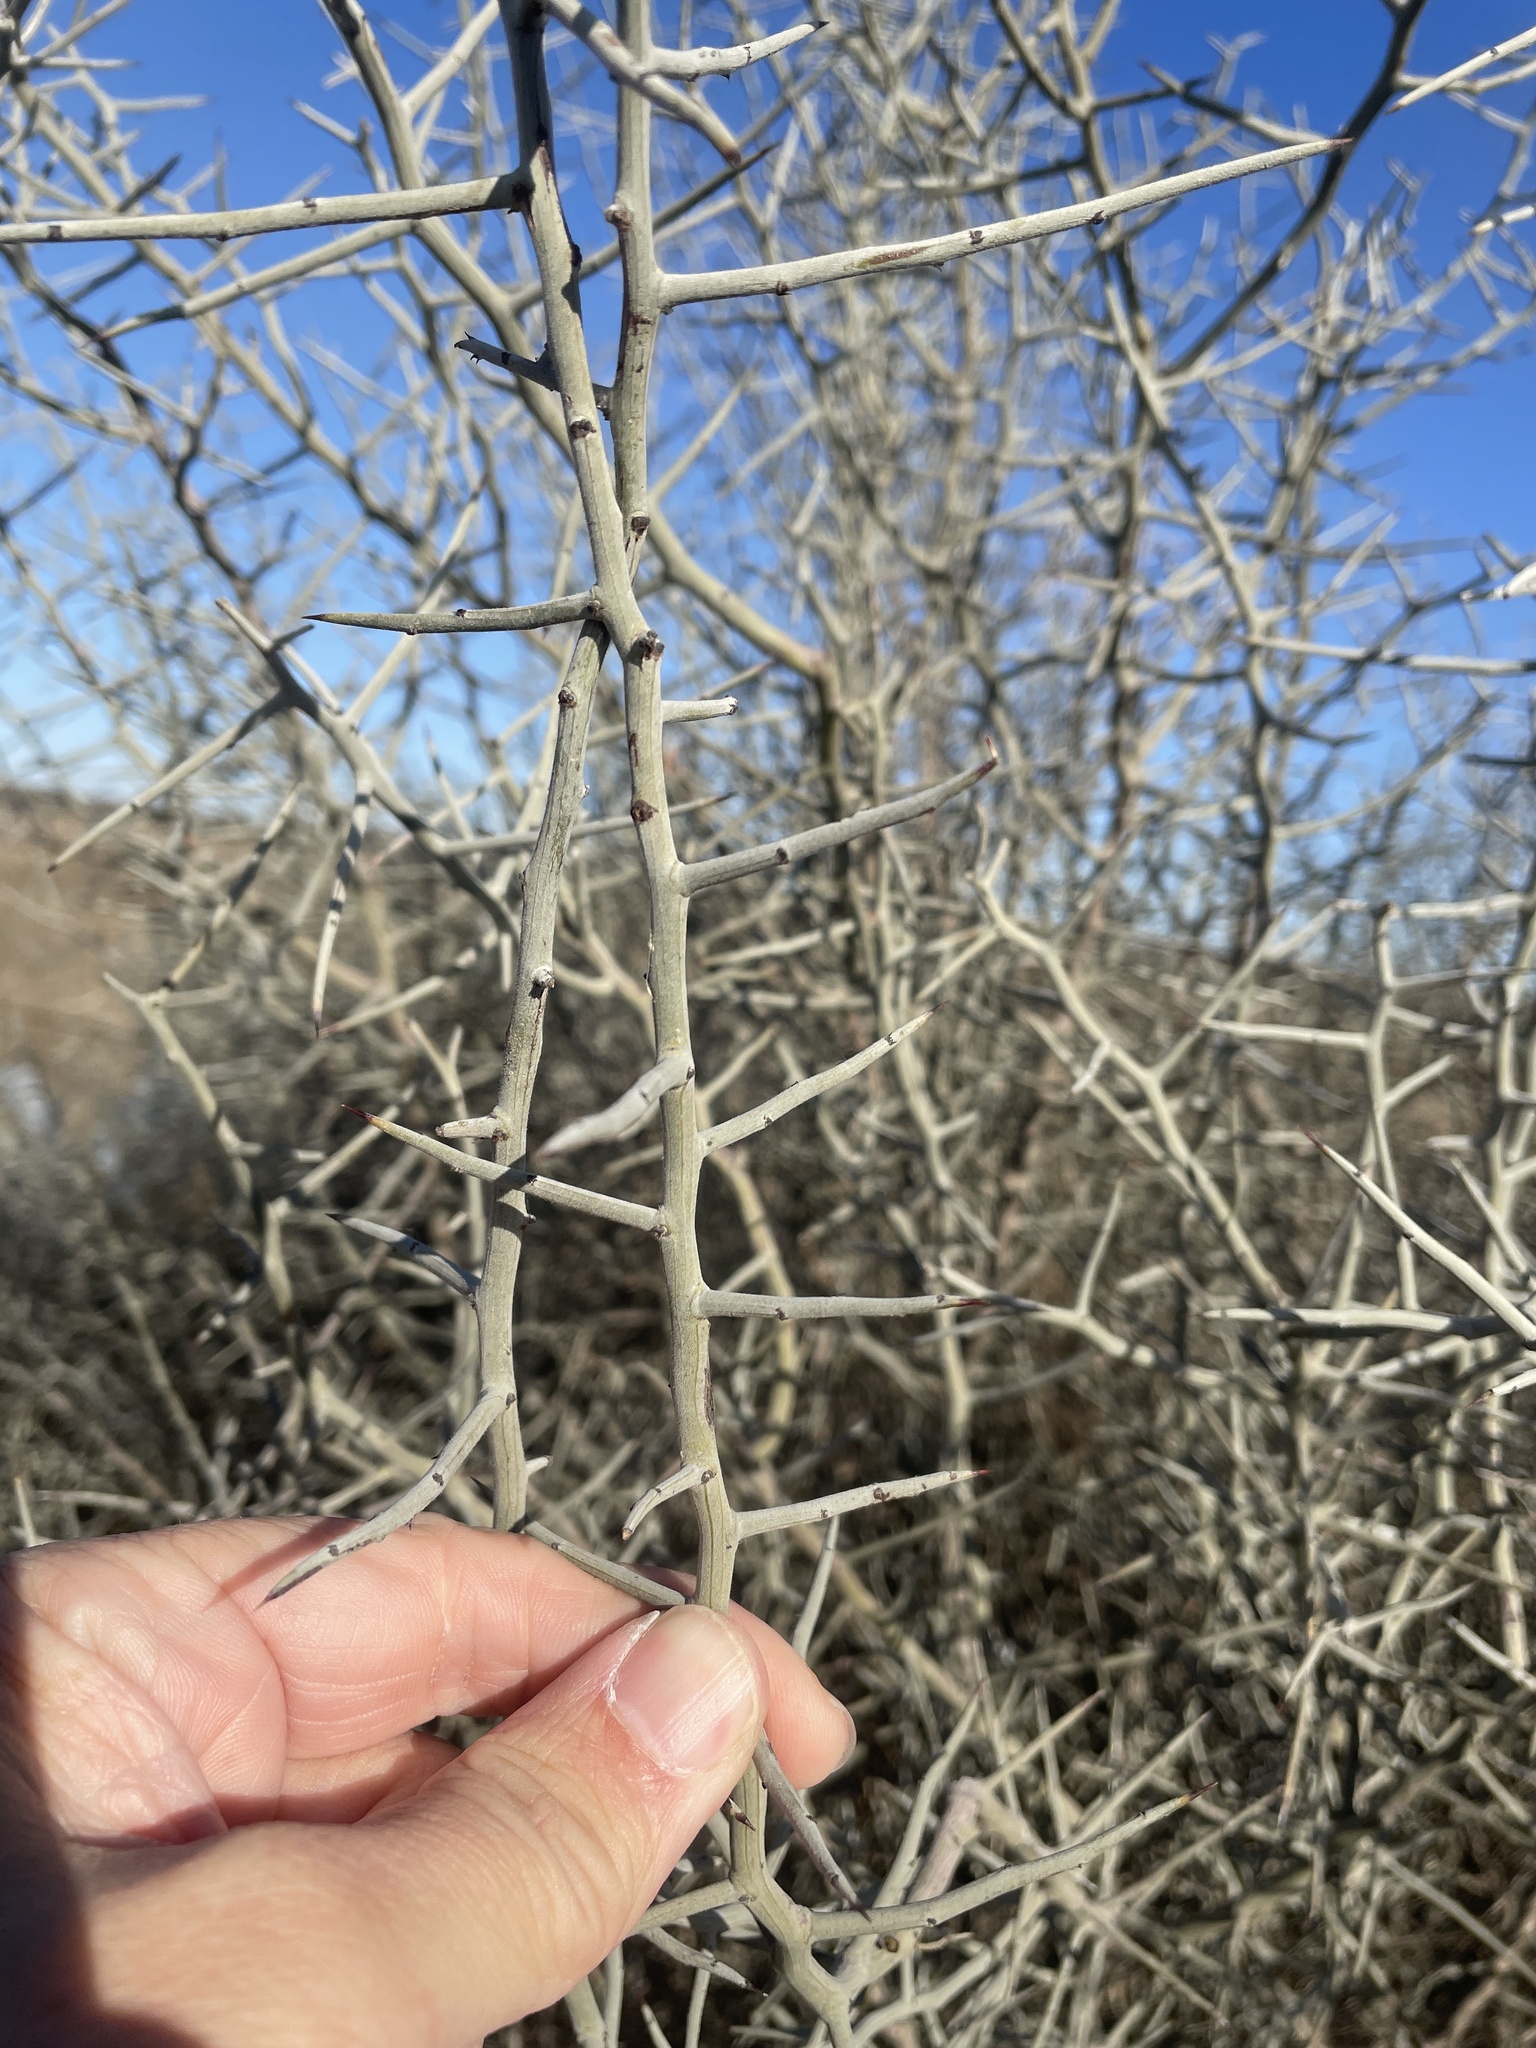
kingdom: Plantae
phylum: Tracheophyta
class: Magnoliopsida
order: Rosales
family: Rhamnaceae
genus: Sarcomphalus
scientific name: Sarcomphalus obtusifolius
